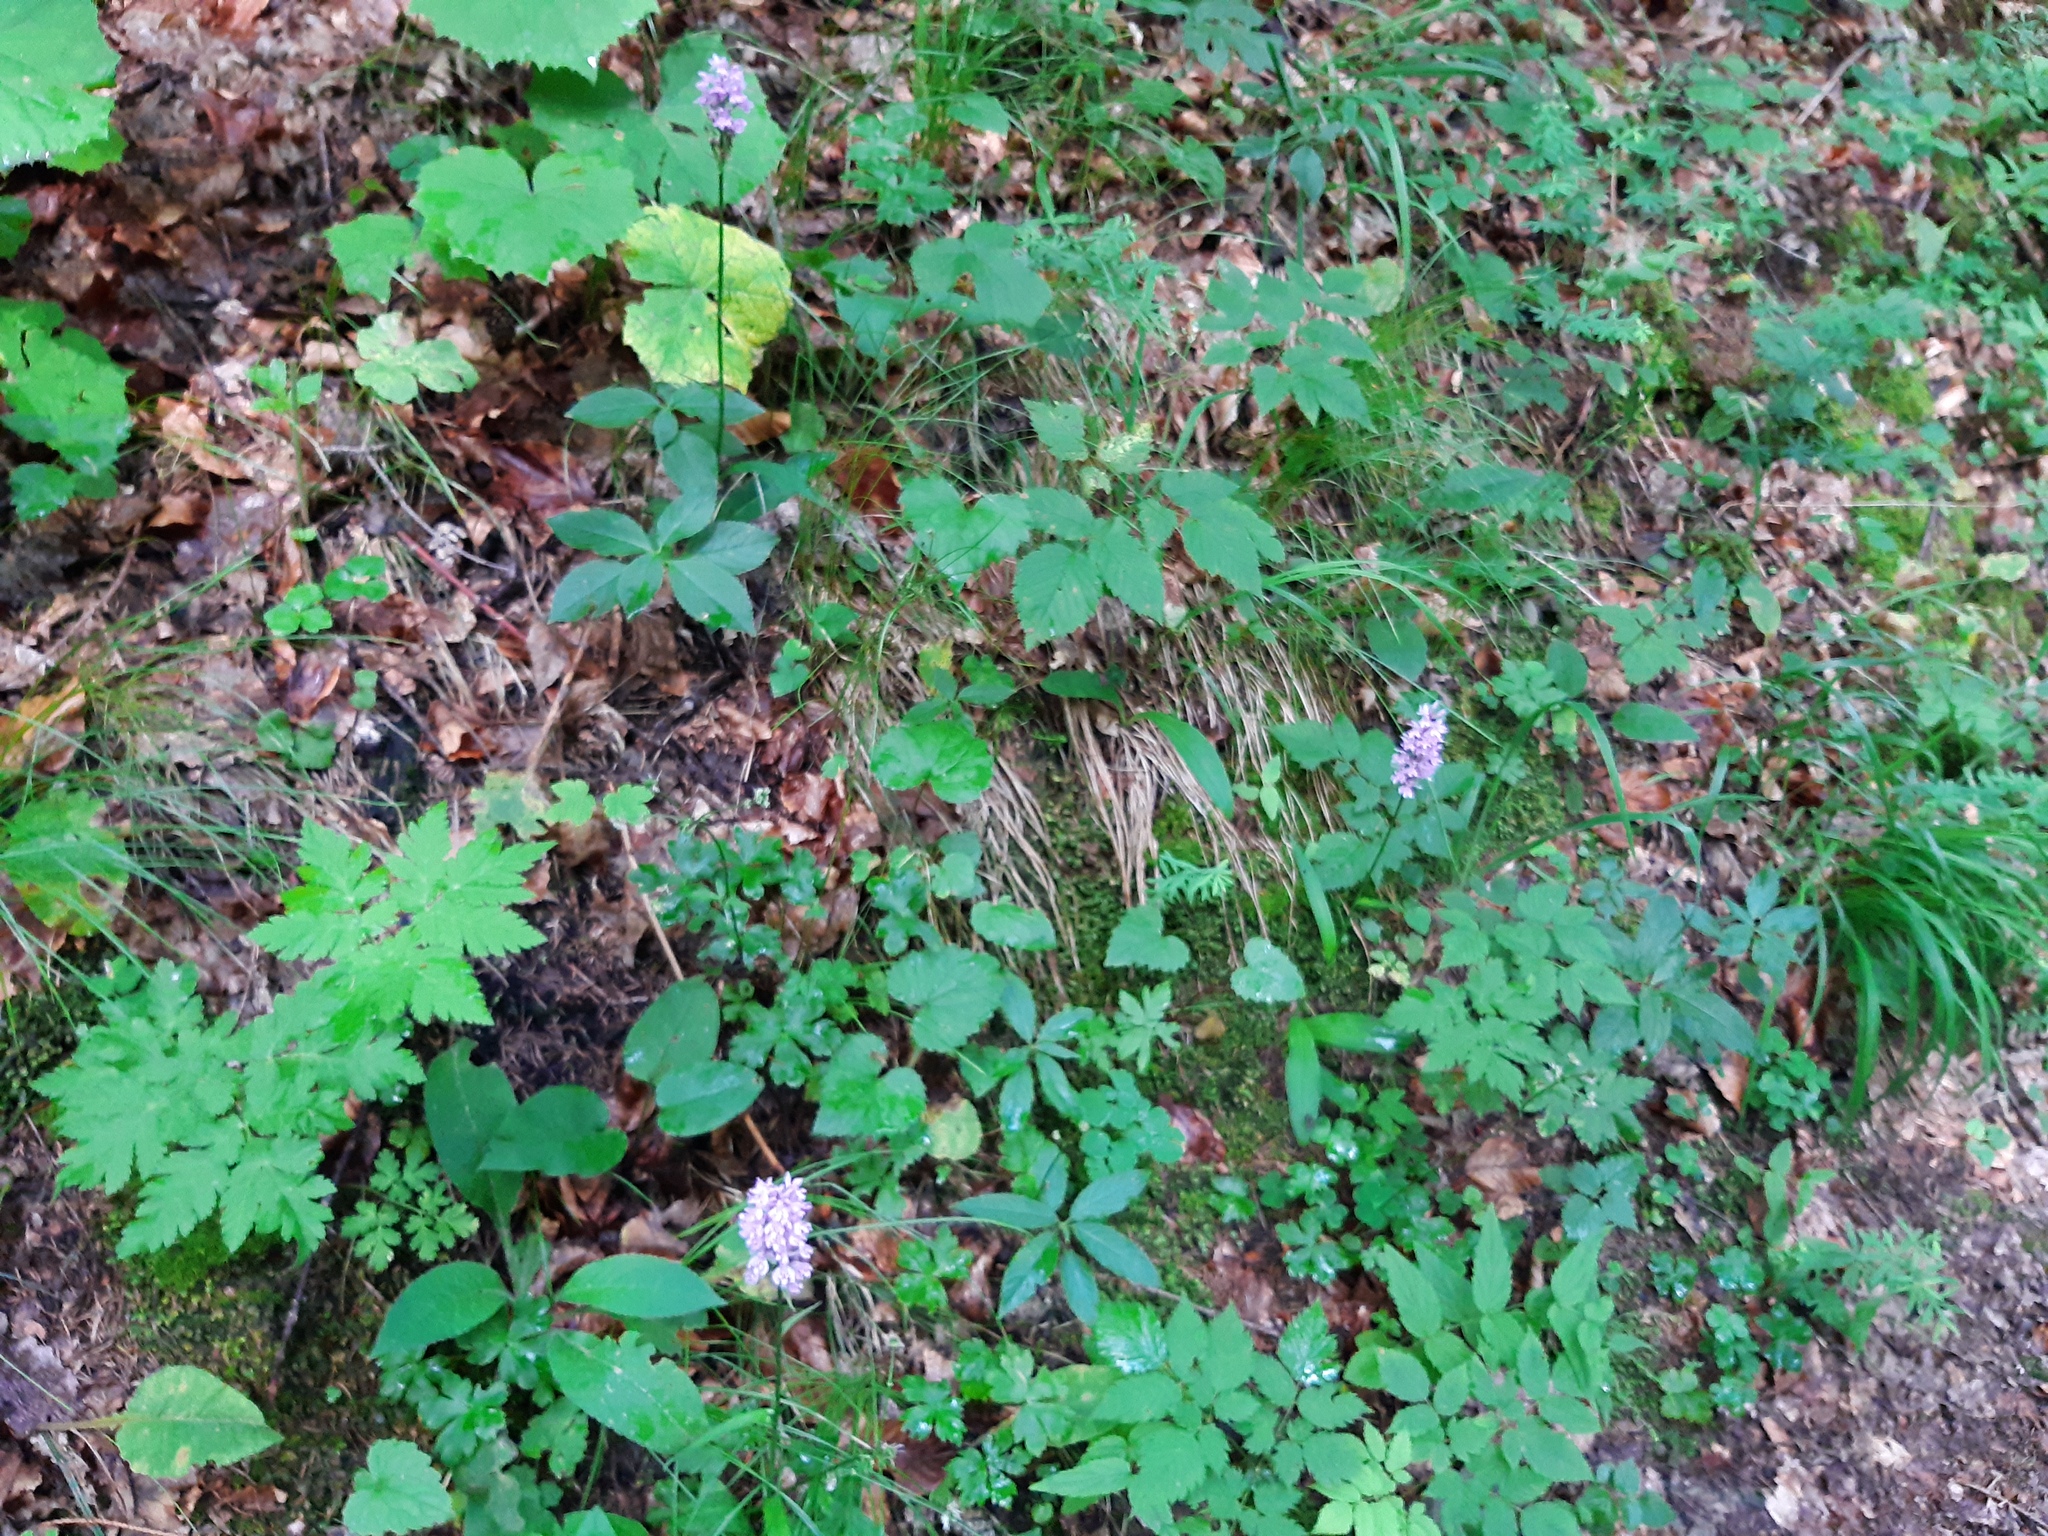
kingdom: Plantae
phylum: Tracheophyta
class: Liliopsida
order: Asparagales
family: Orchidaceae
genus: Dactylorhiza
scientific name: Dactylorhiza maculata
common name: Heath spotted-orchid
